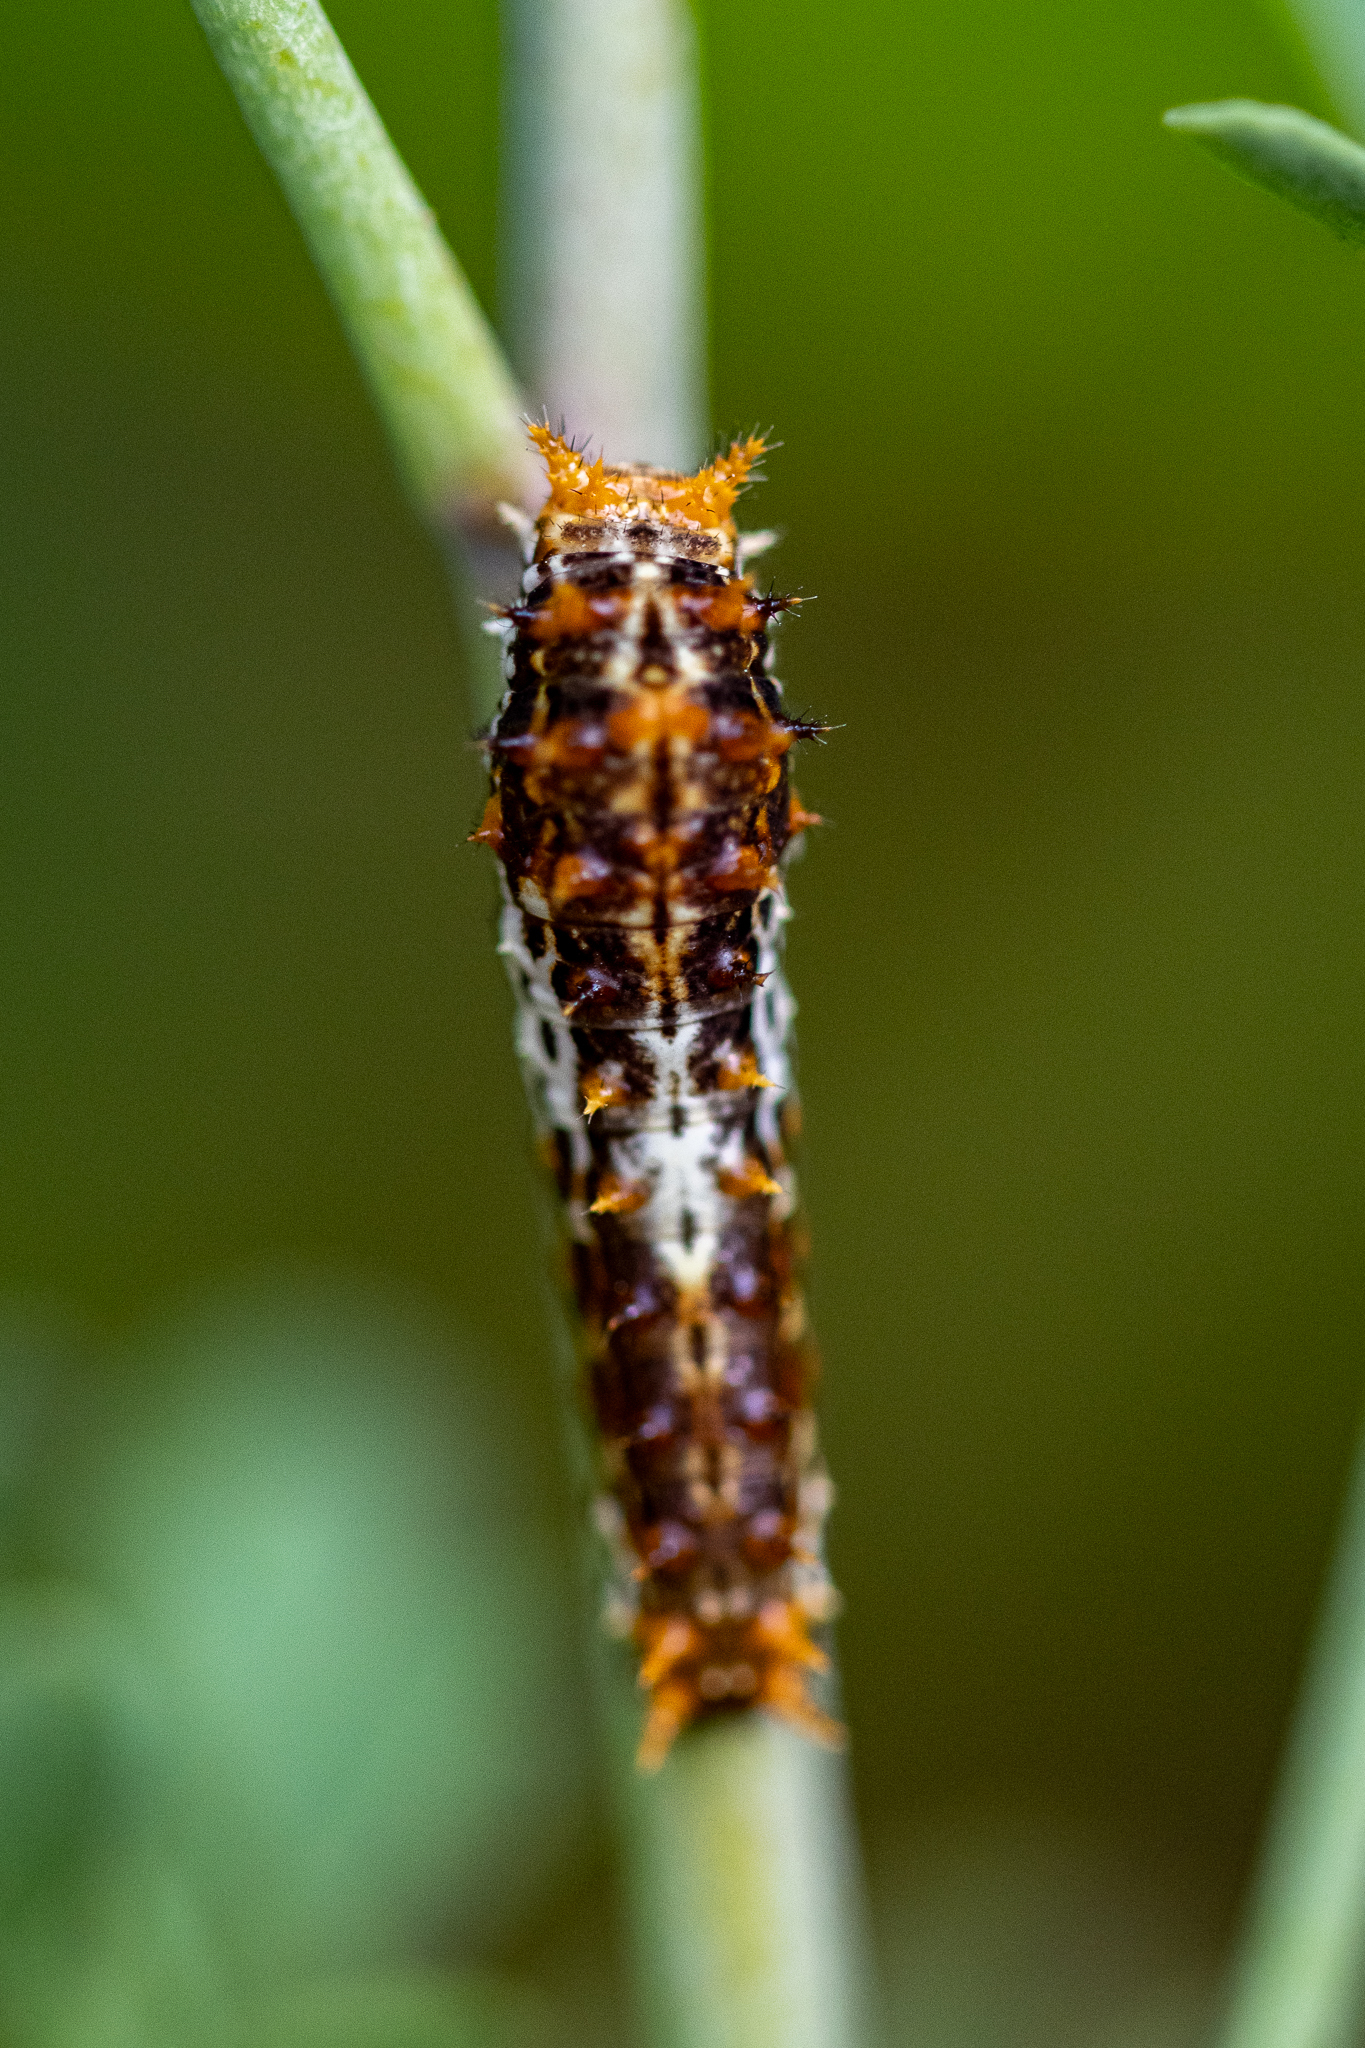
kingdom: Animalia
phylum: Arthropoda
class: Insecta
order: Lepidoptera
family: Papilionidae
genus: Papilio
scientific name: Papilio demodocus
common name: Christmas butterfly
